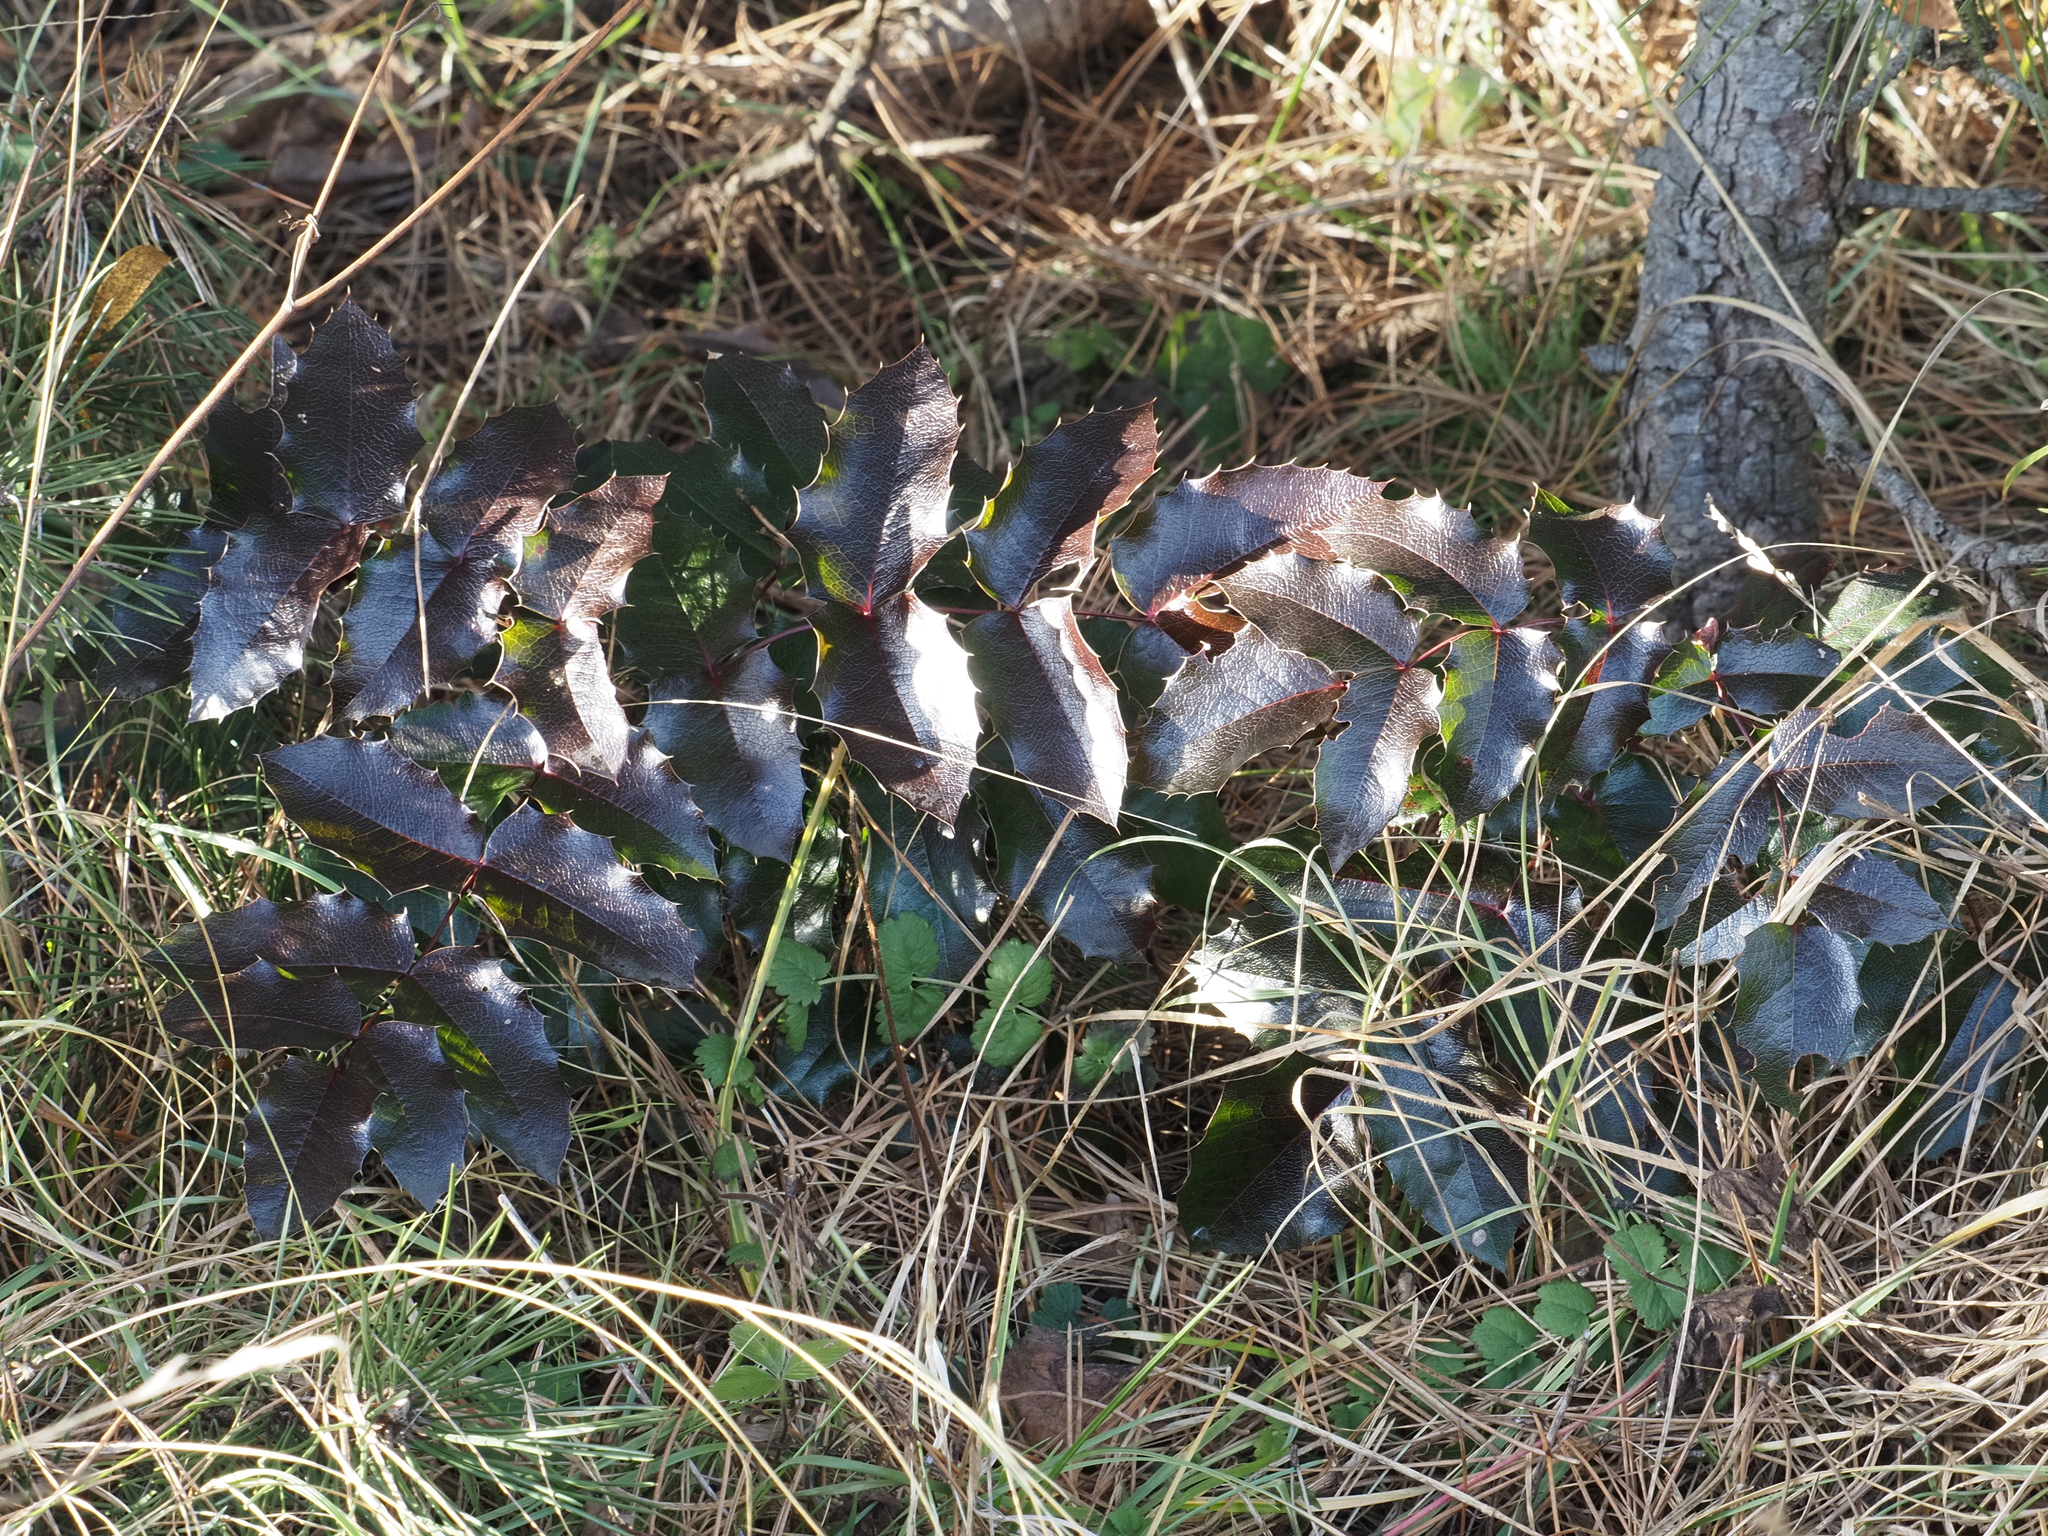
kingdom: Plantae
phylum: Tracheophyta
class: Magnoliopsida
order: Ranunculales
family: Berberidaceae
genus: Mahonia
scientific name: Mahonia aquifolium
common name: Oregon-grape
